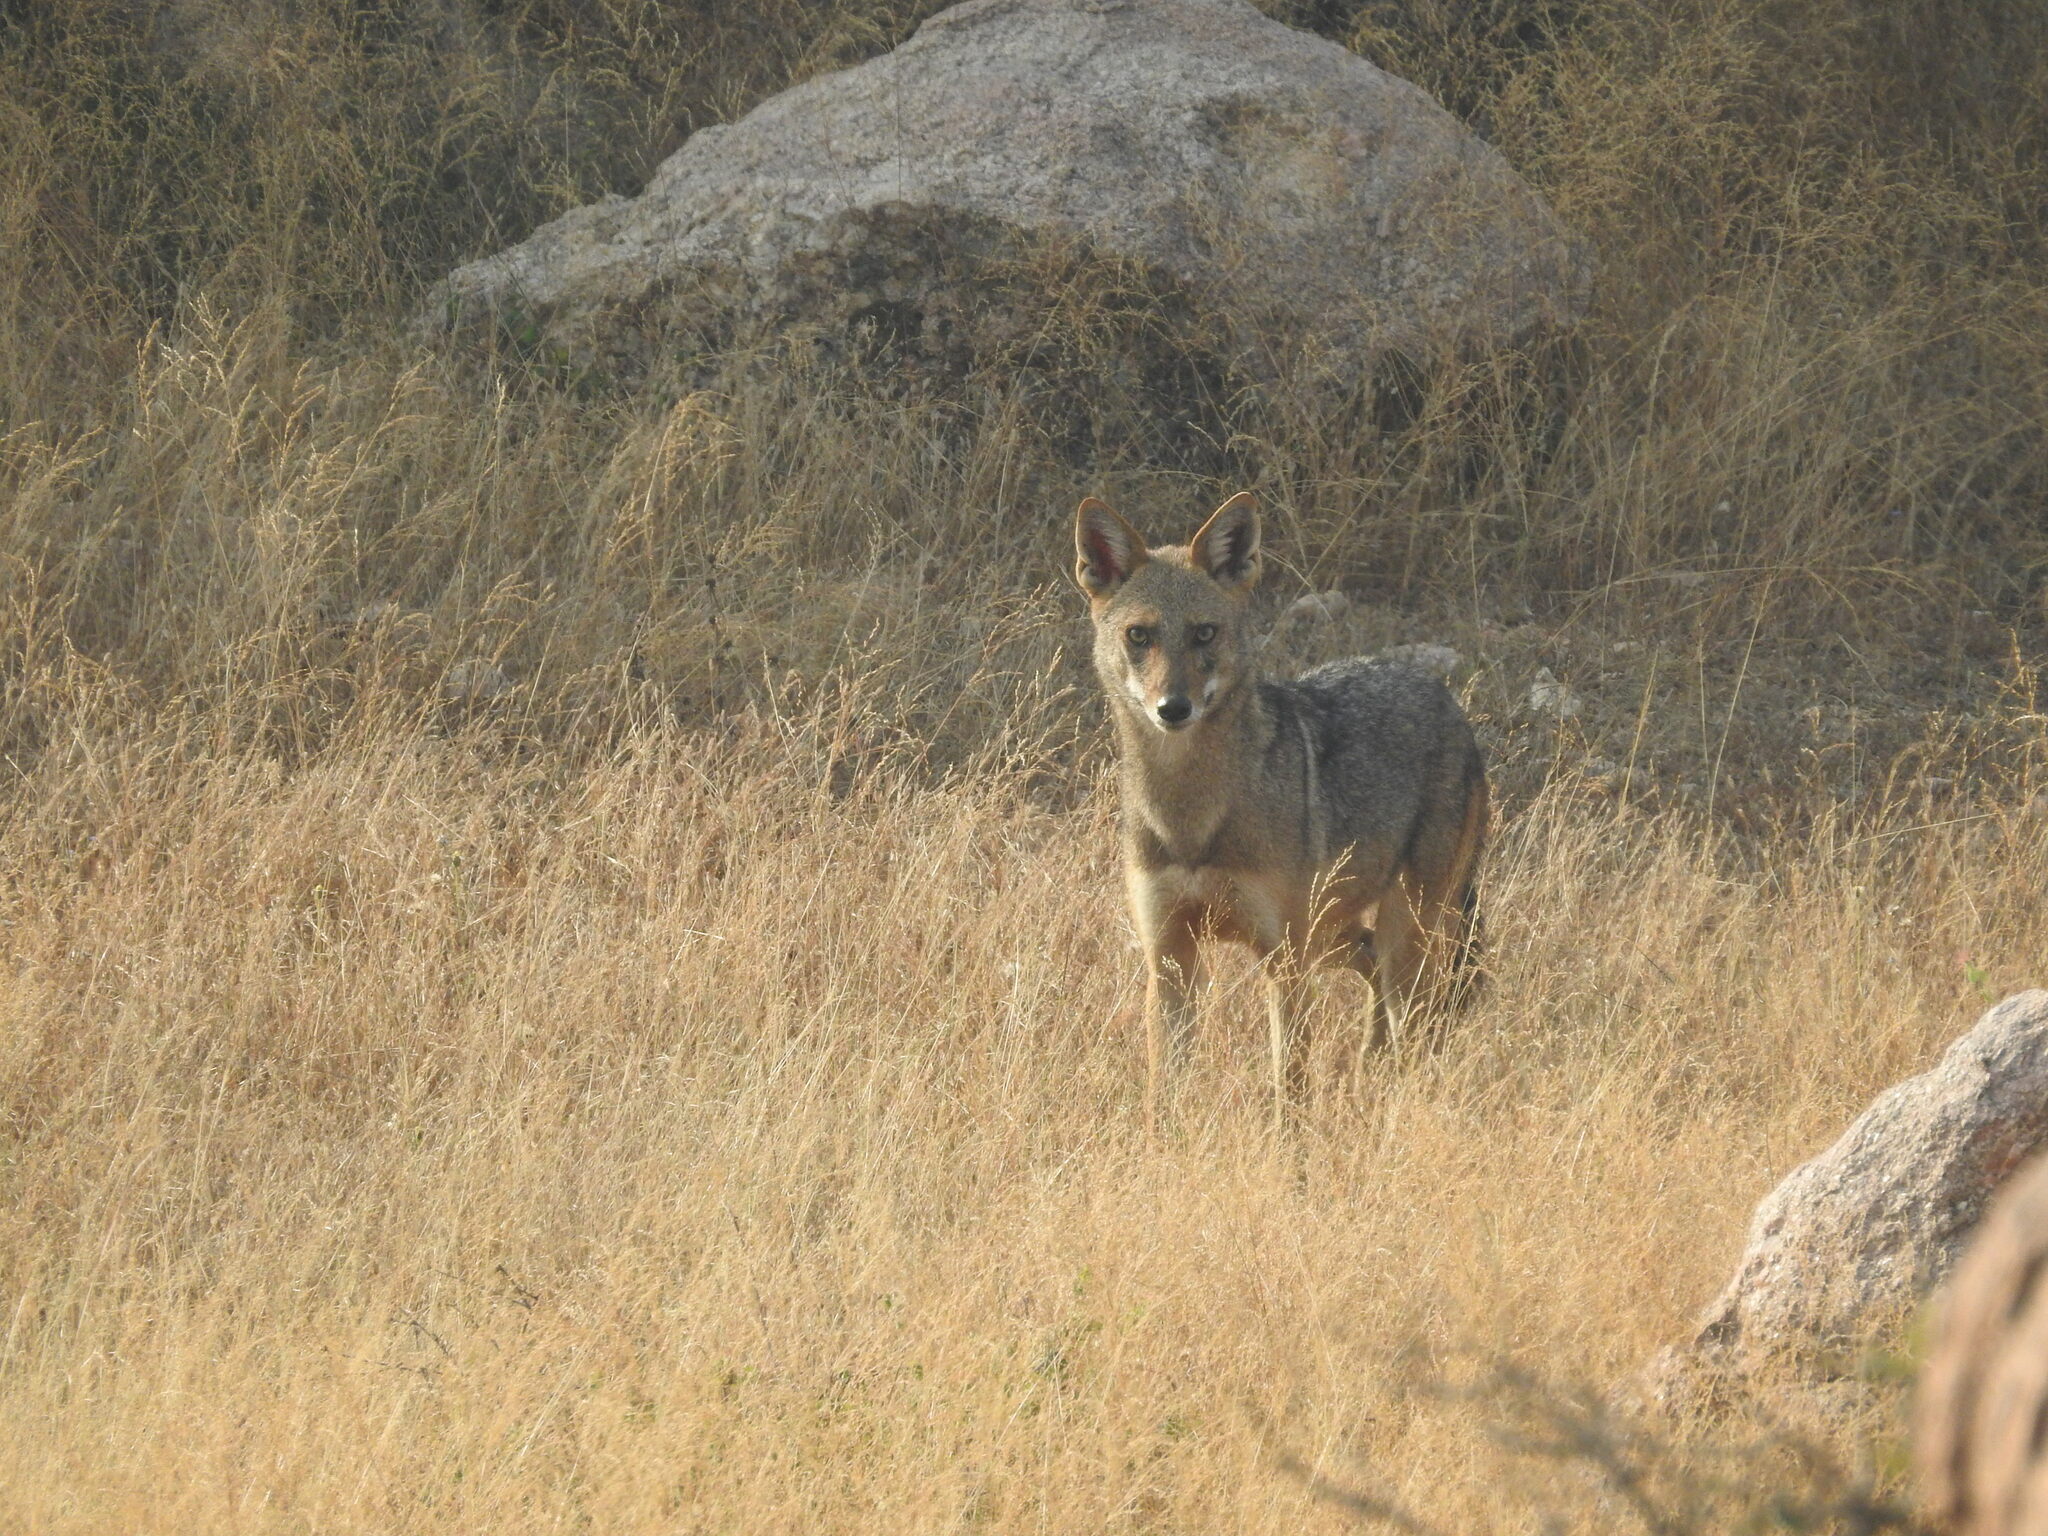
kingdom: Animalia
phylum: Chordata
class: Mammalia
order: Carnivora
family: Canidae
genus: Canis
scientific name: Canis aureus
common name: Golden jackal
